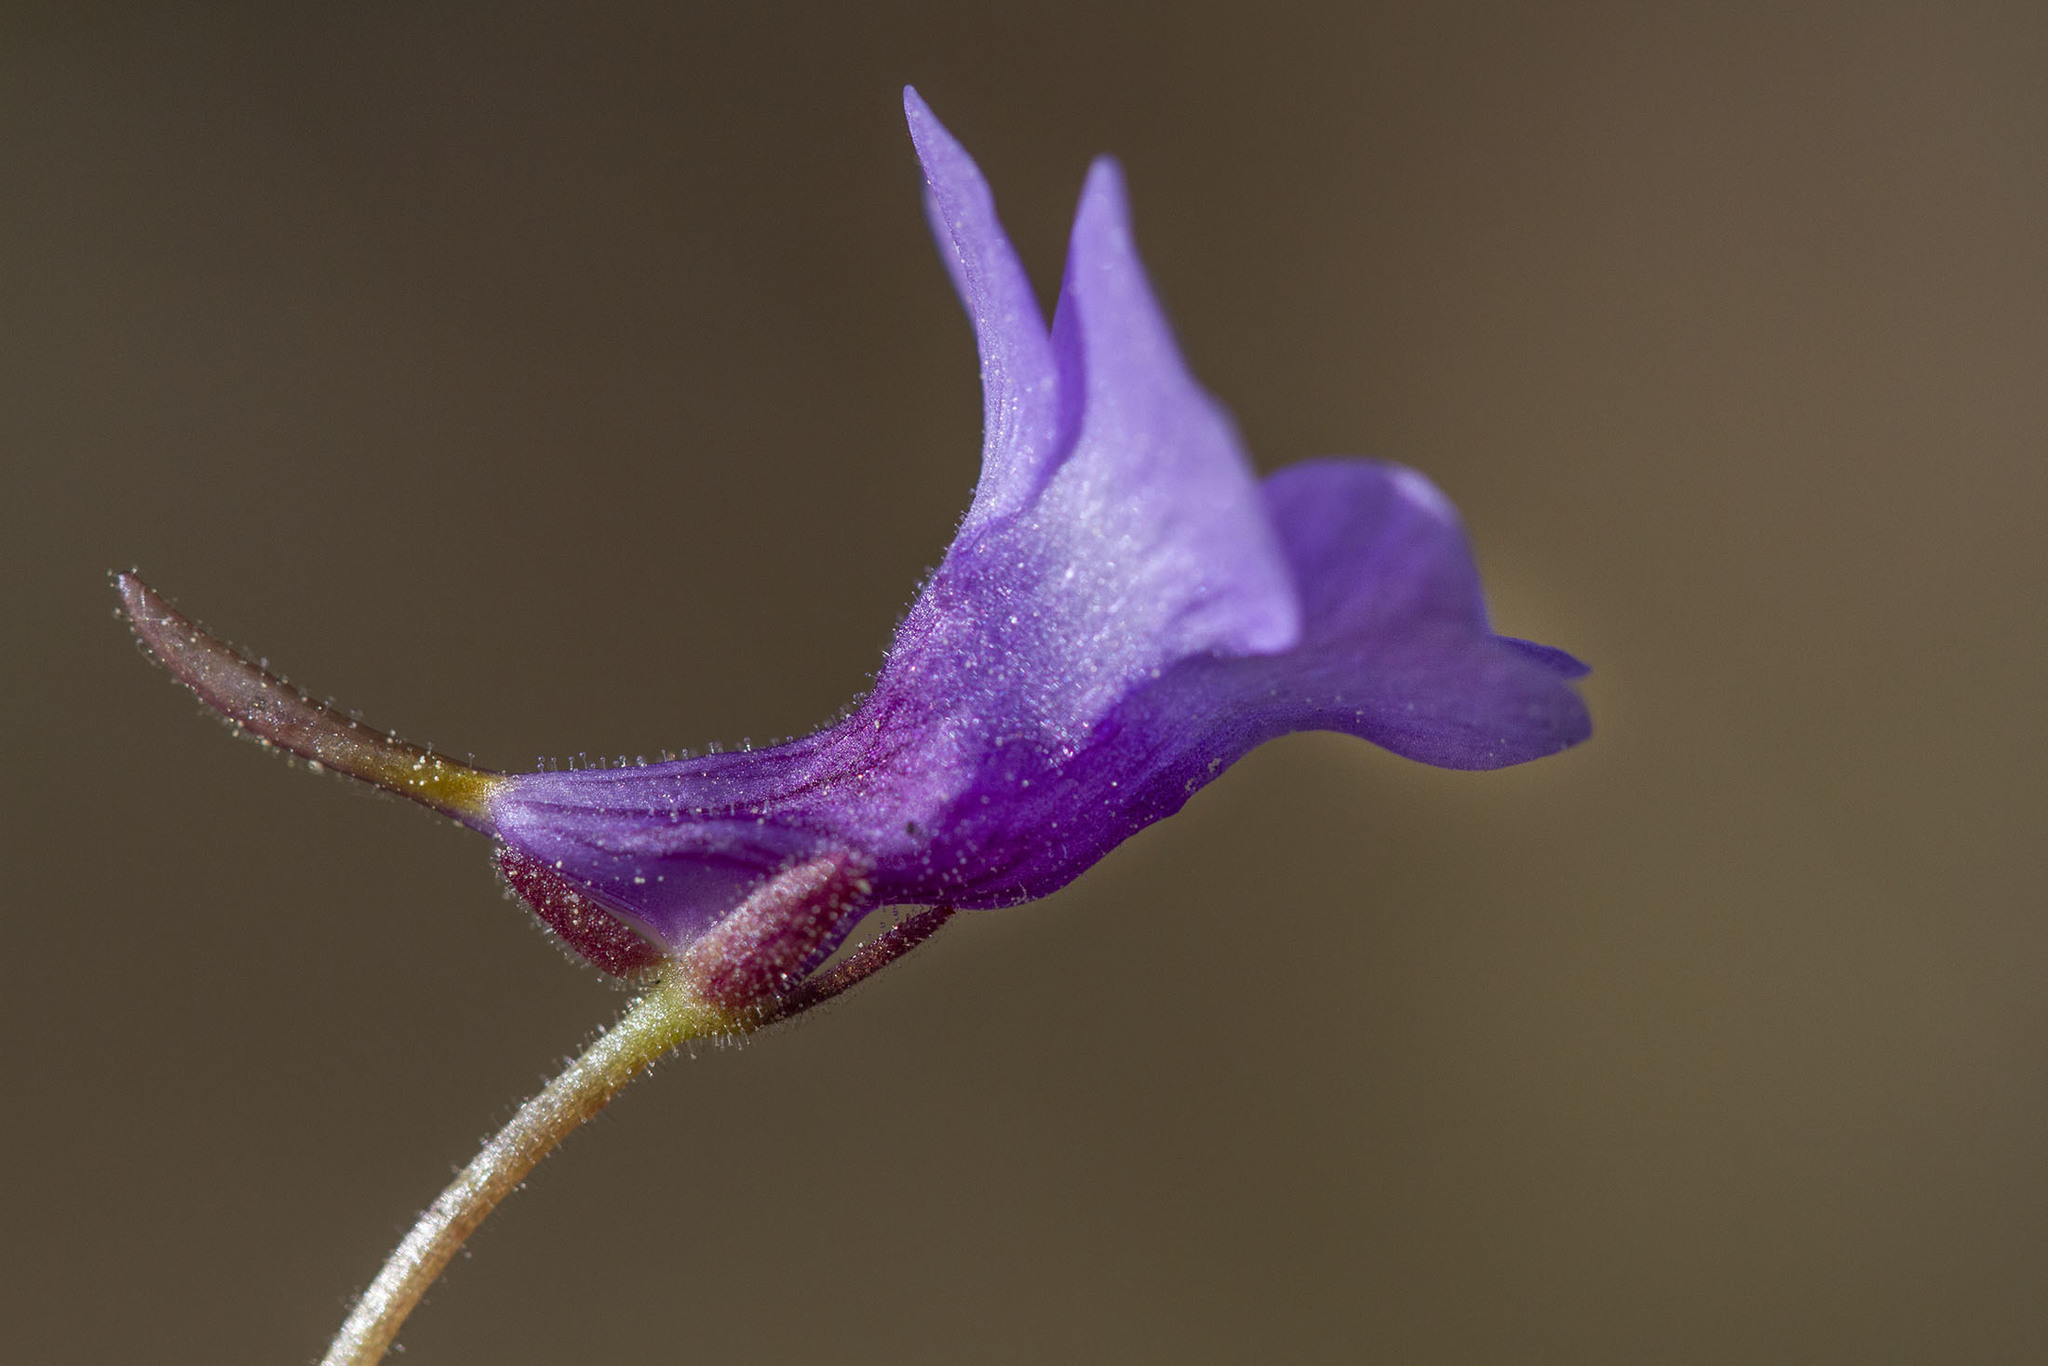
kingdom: Plantae
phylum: Tracheophyta
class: Magnoliopsida
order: Lamiales
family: Lentibulariaceae
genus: Pinguicula
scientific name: Pinguicula pumila
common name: Small butterwort
